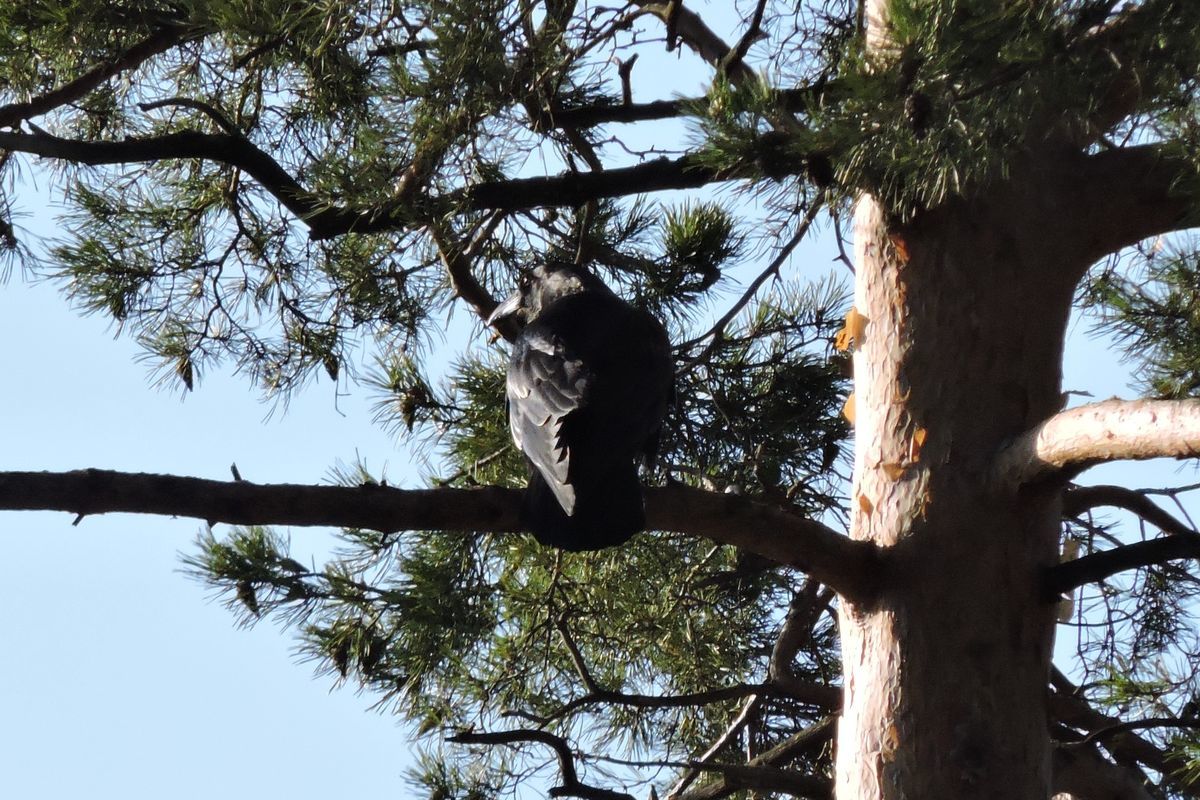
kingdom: Animalia
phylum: Chordata
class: Aves
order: Passeriformes
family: Corvidae
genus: Corvus
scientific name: Corvus corax
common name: Common raven
